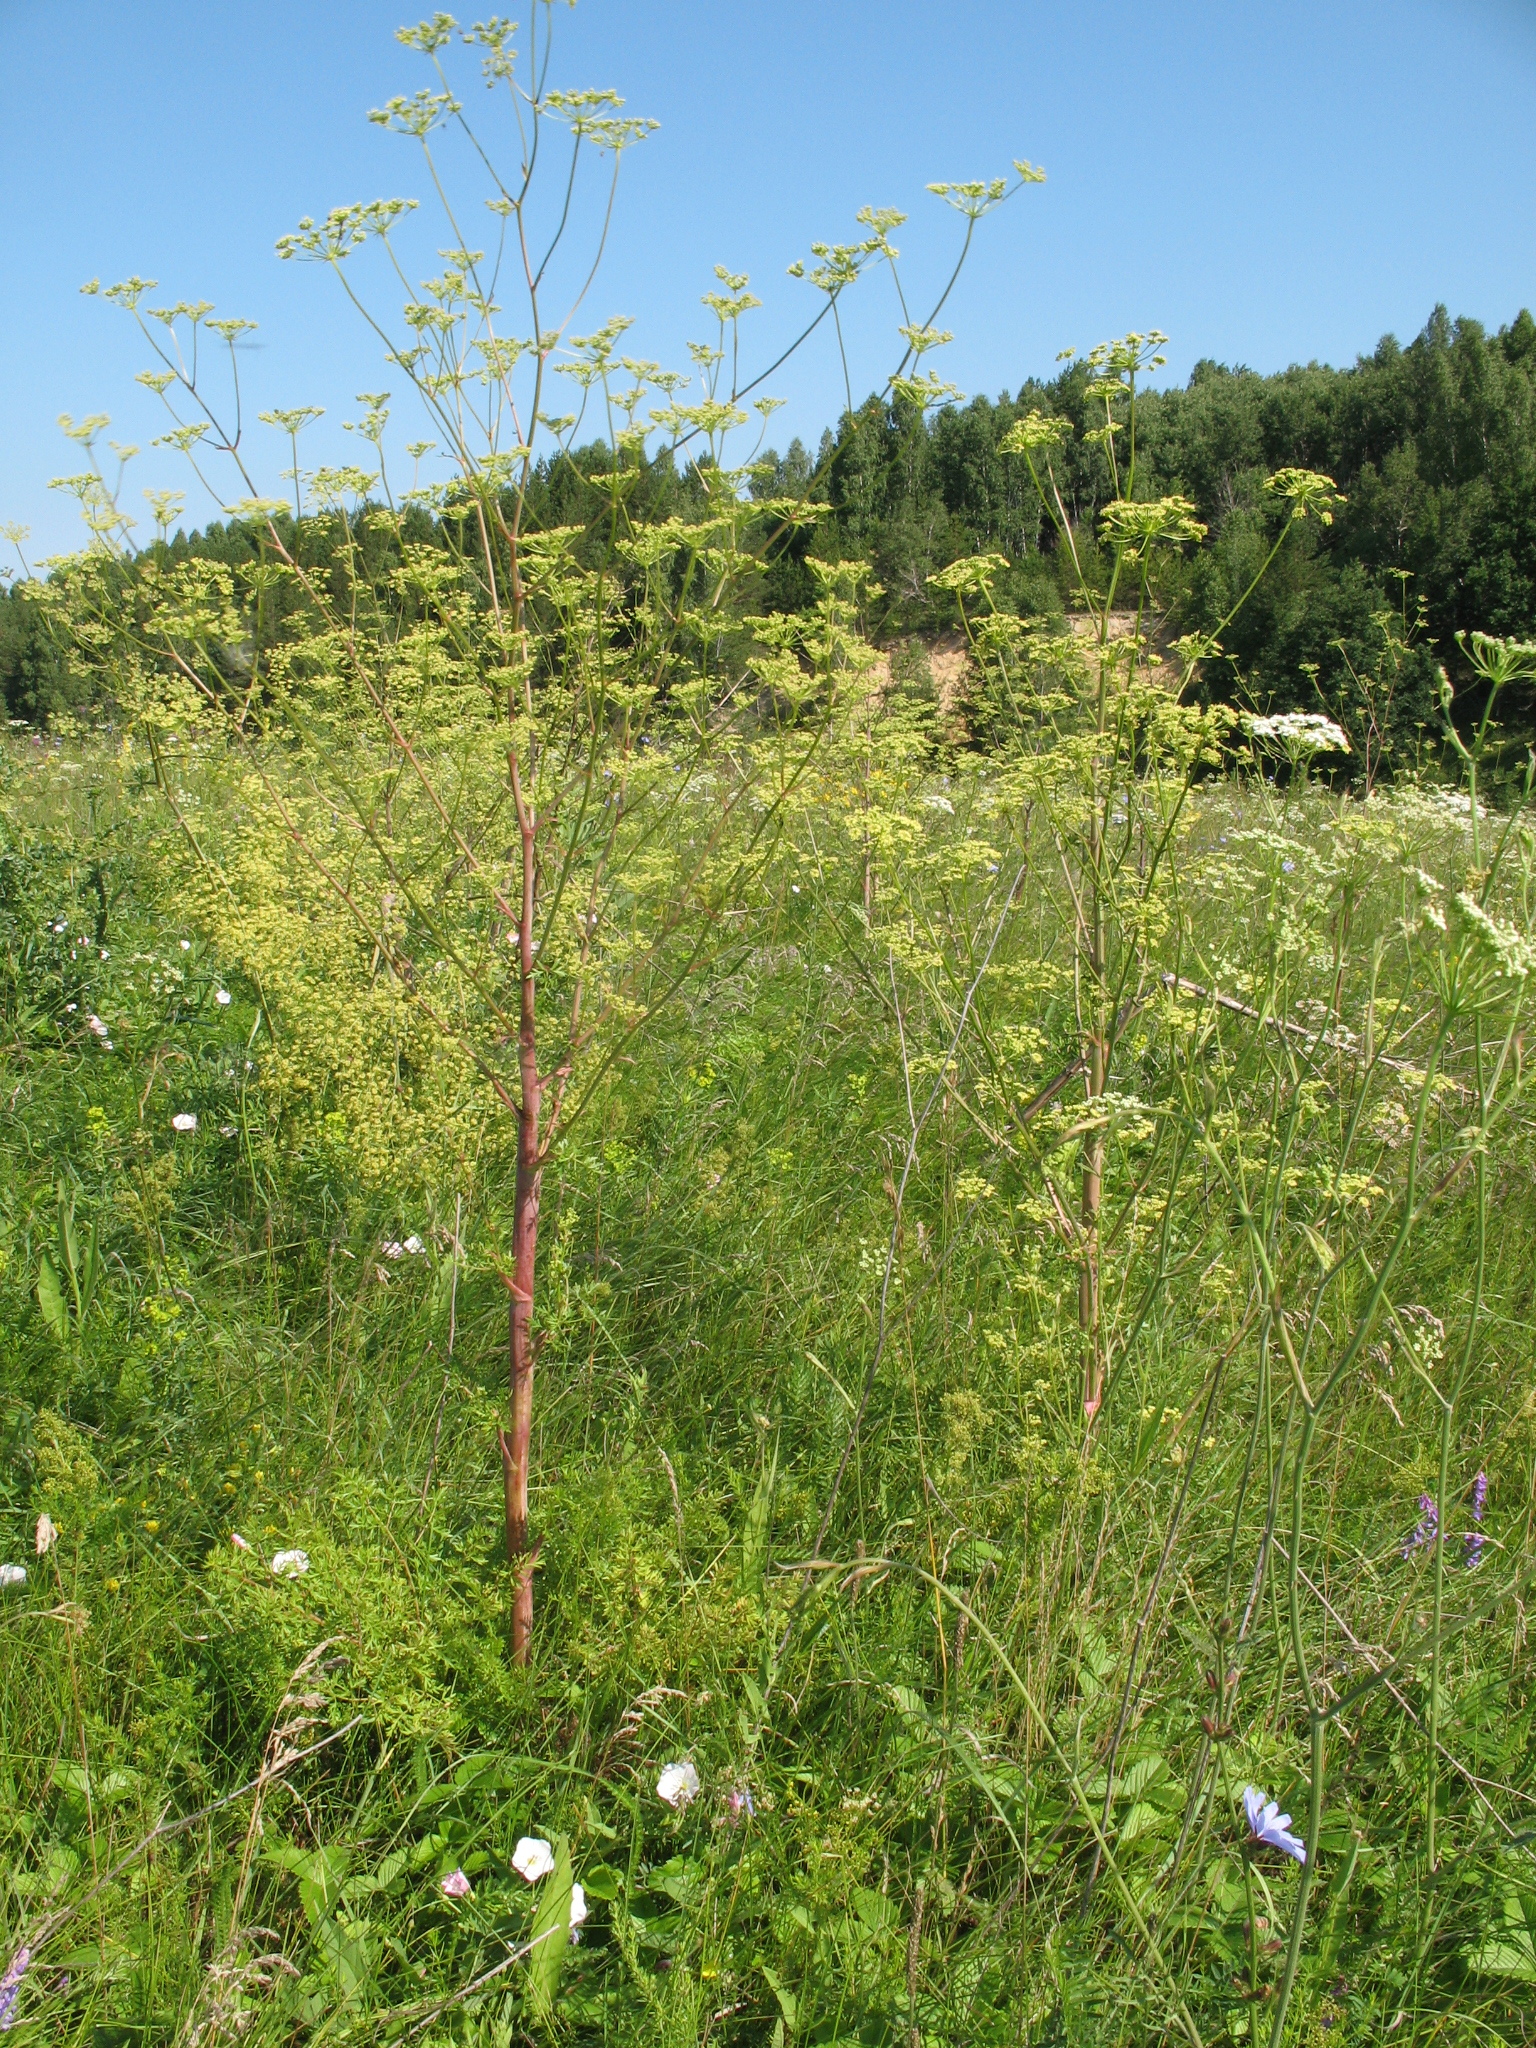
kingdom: Plantae
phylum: Tracheophyta
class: Magnoliopsida
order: Apiales
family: Apiaceae
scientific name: Apiaceae
